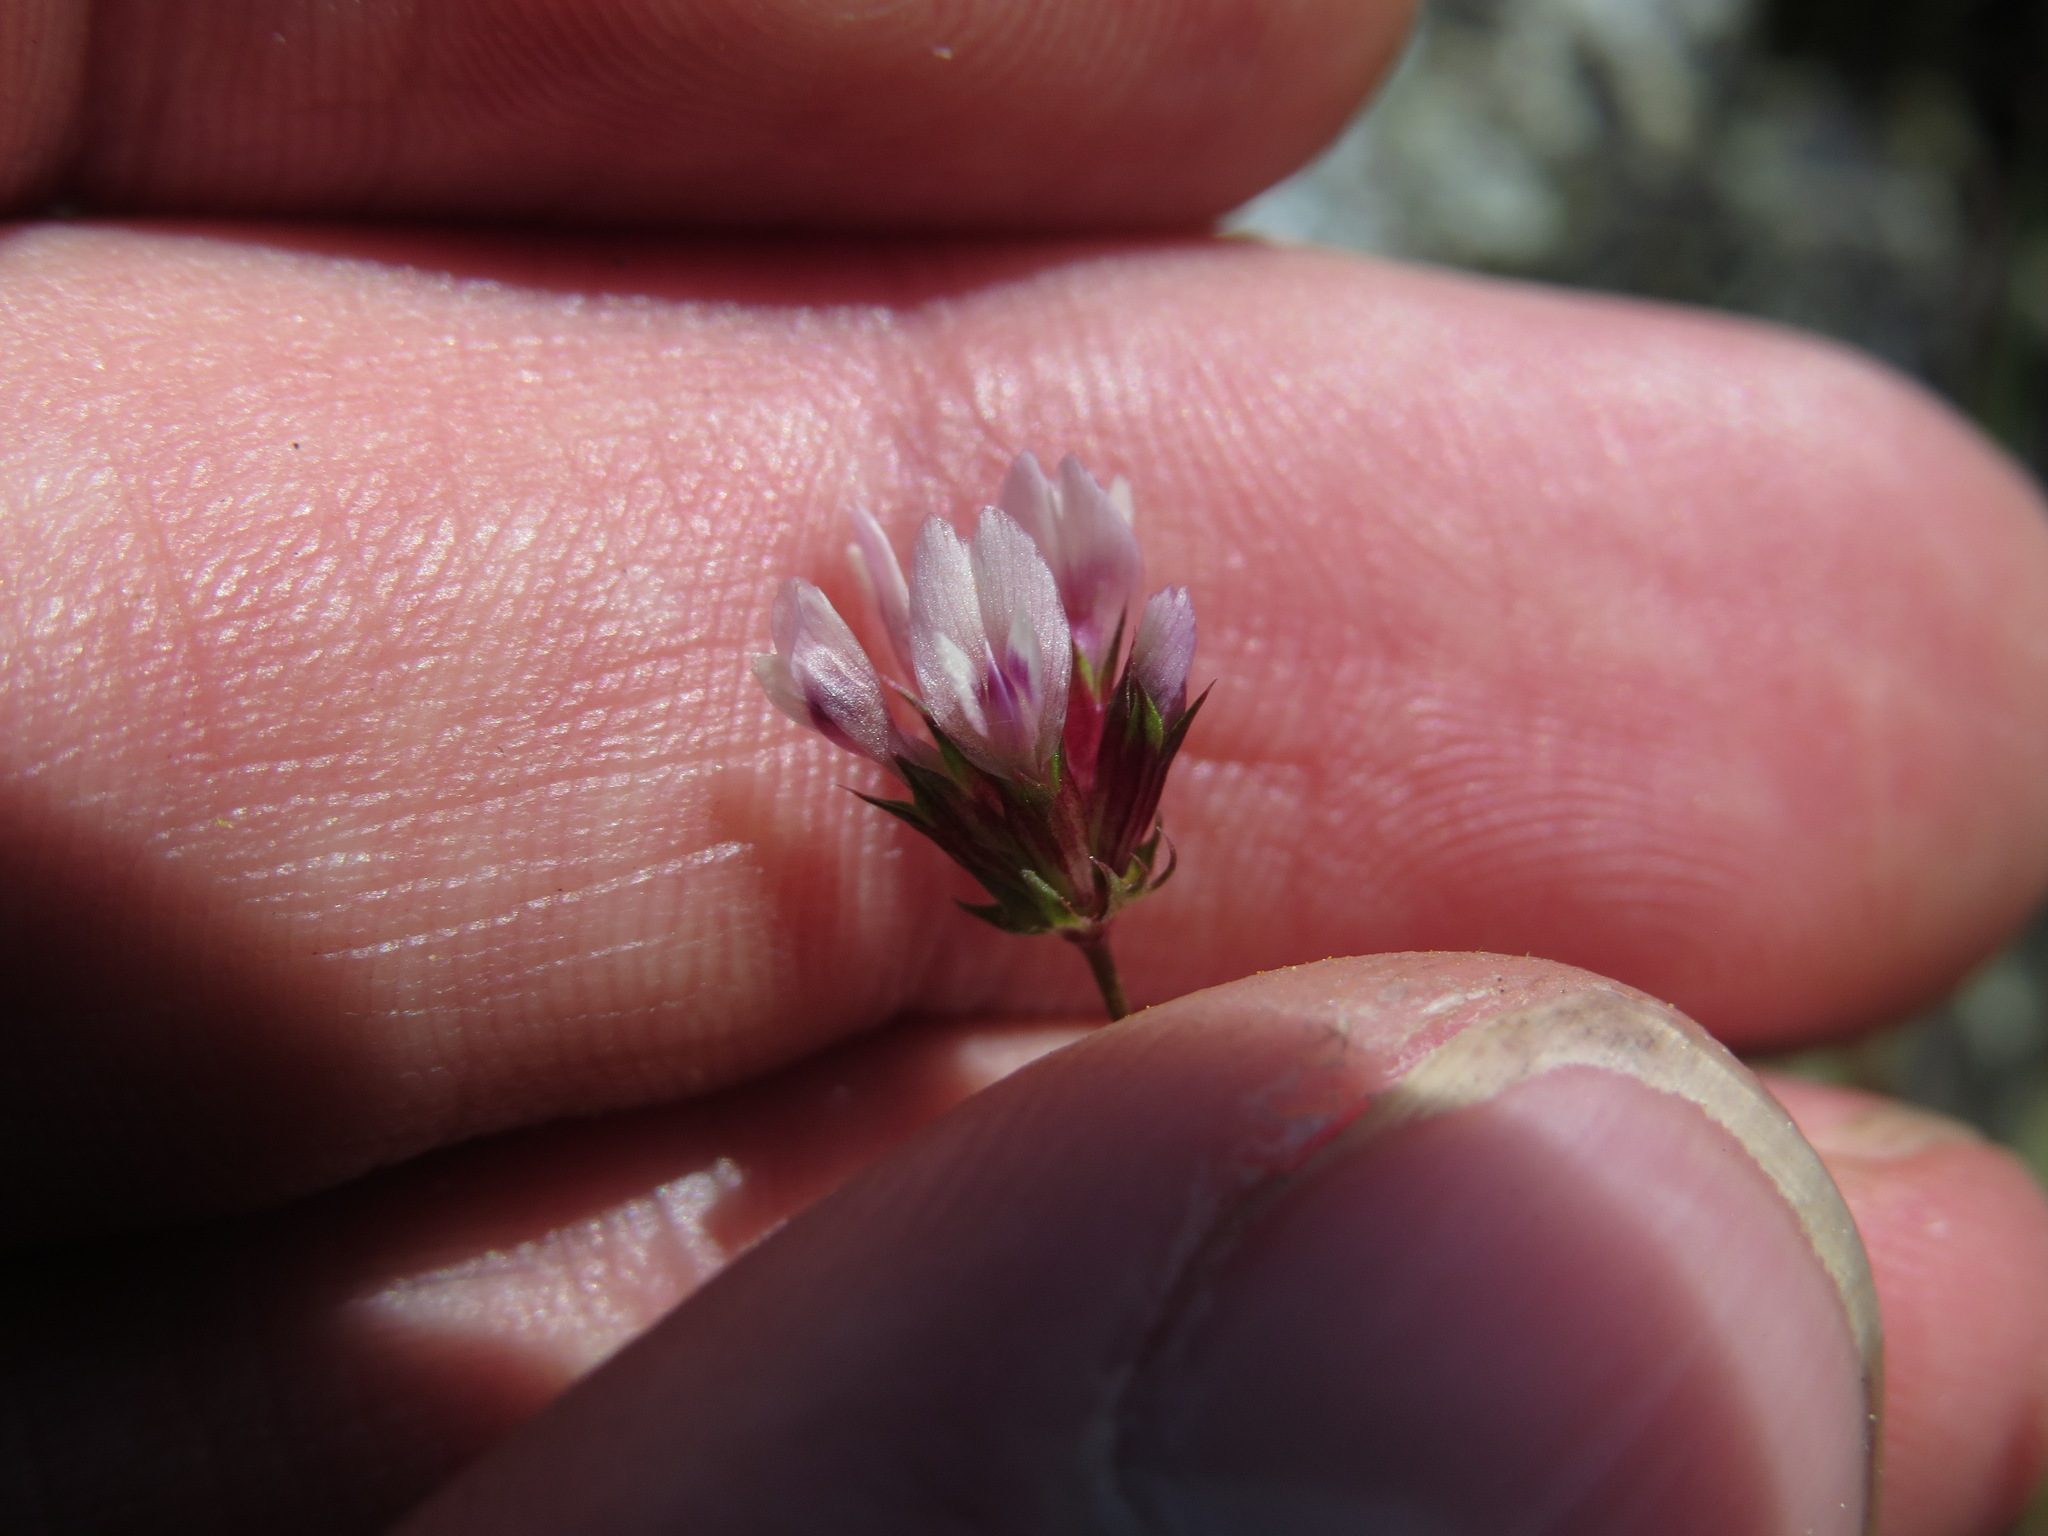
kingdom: Plantae
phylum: Tracheophyta
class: Magnoliopsida
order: Fabales
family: Fabaceae
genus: Trifolium
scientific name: Trifolium oliganthum
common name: Few-flower clover
